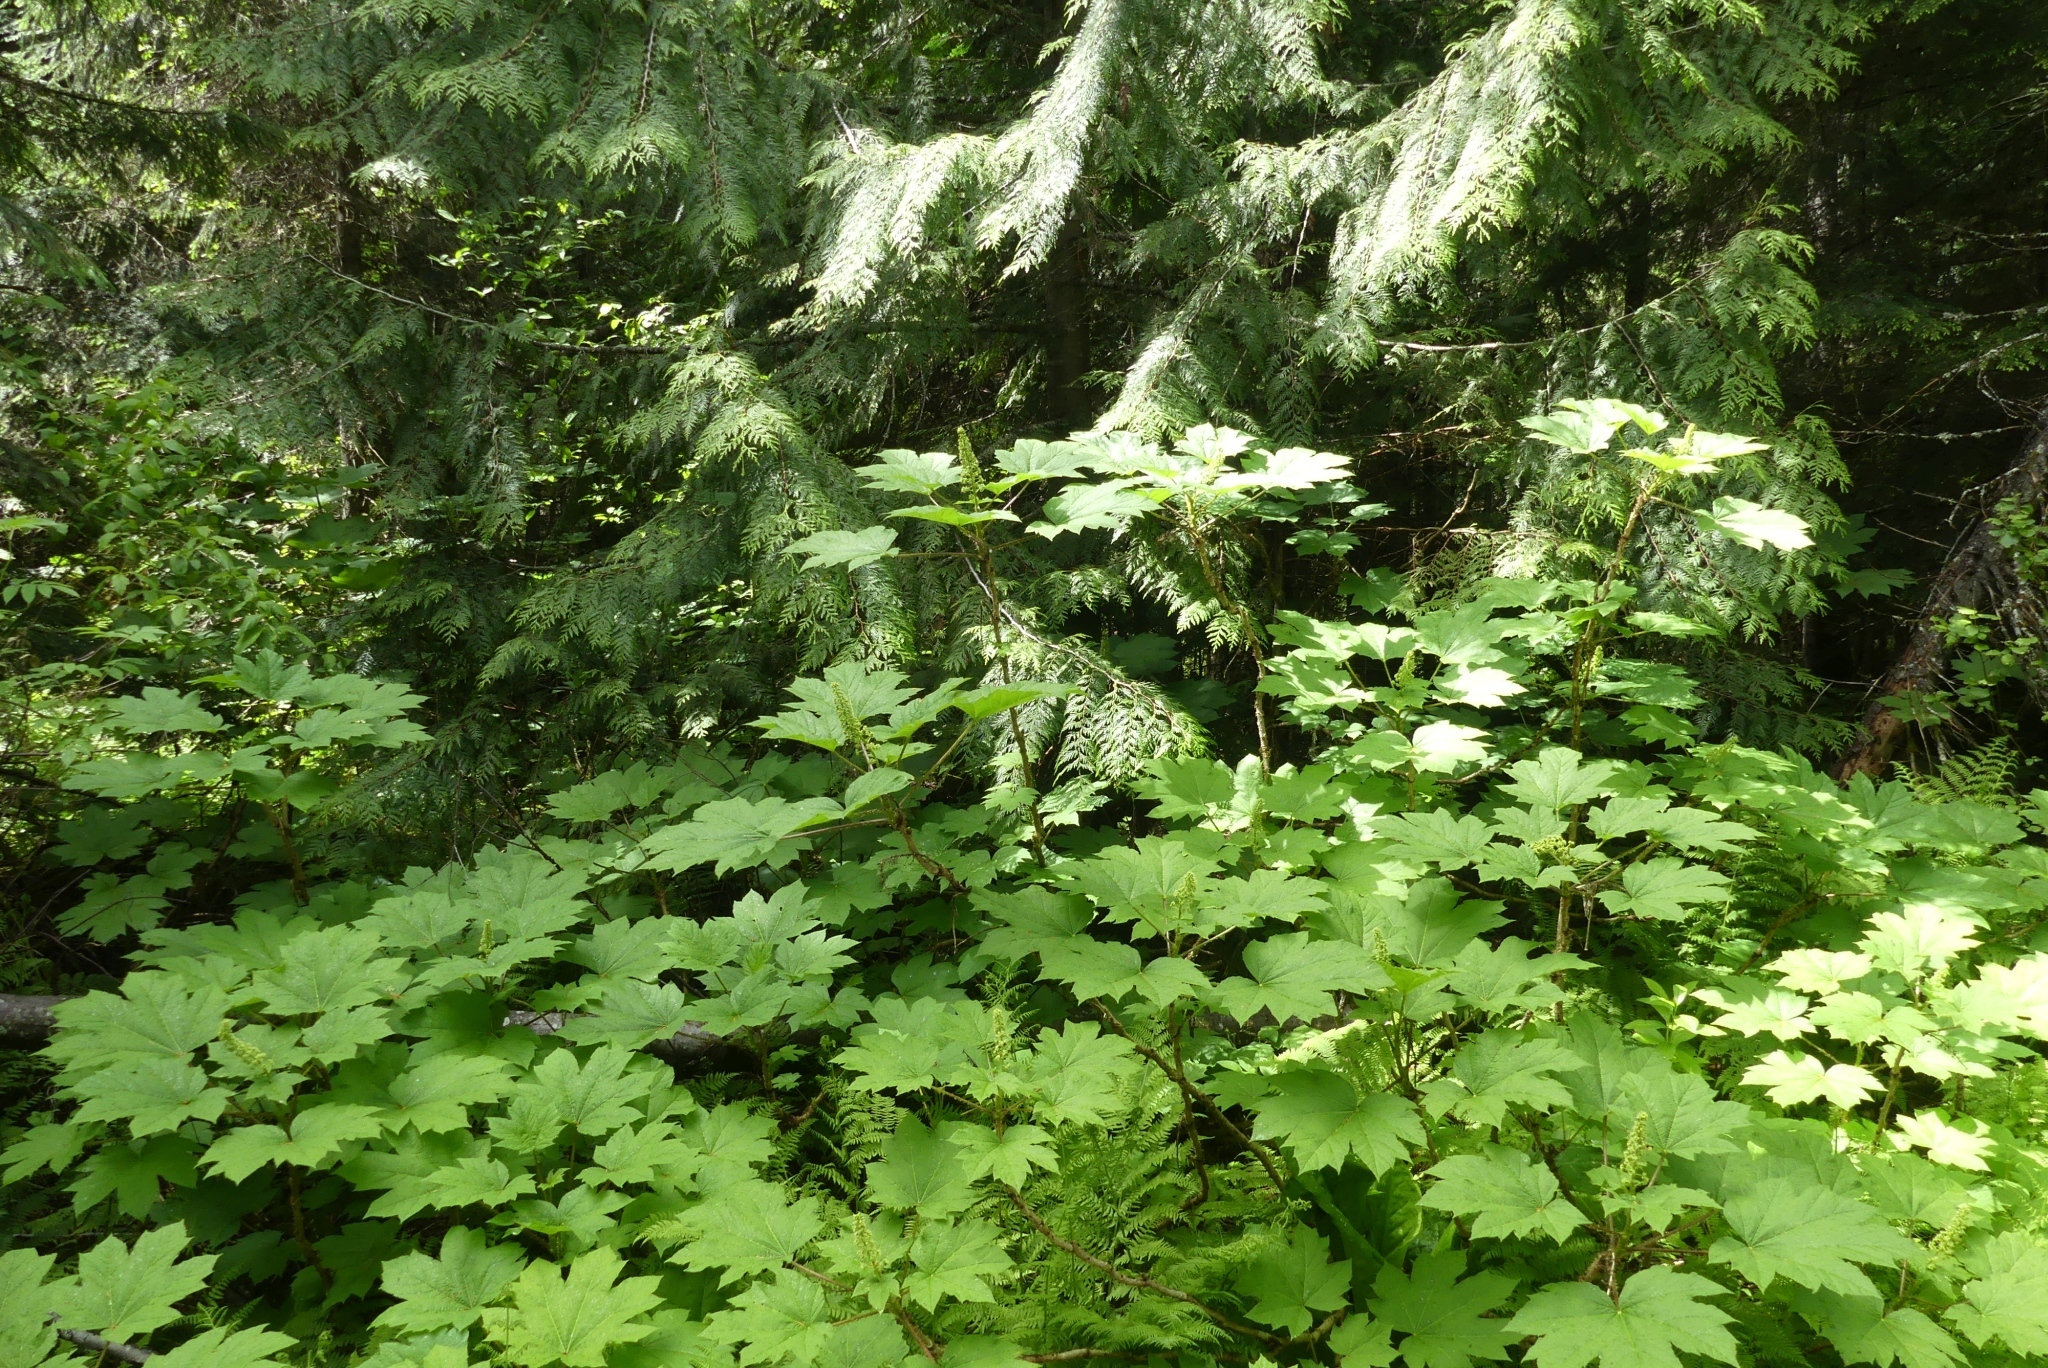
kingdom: Plantae
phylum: Tracheophyta
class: Magnoliopsida
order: Apiales
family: Araliaceae
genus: Oplopanax
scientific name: Oplopanax horridus
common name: Devil's walking-stick
